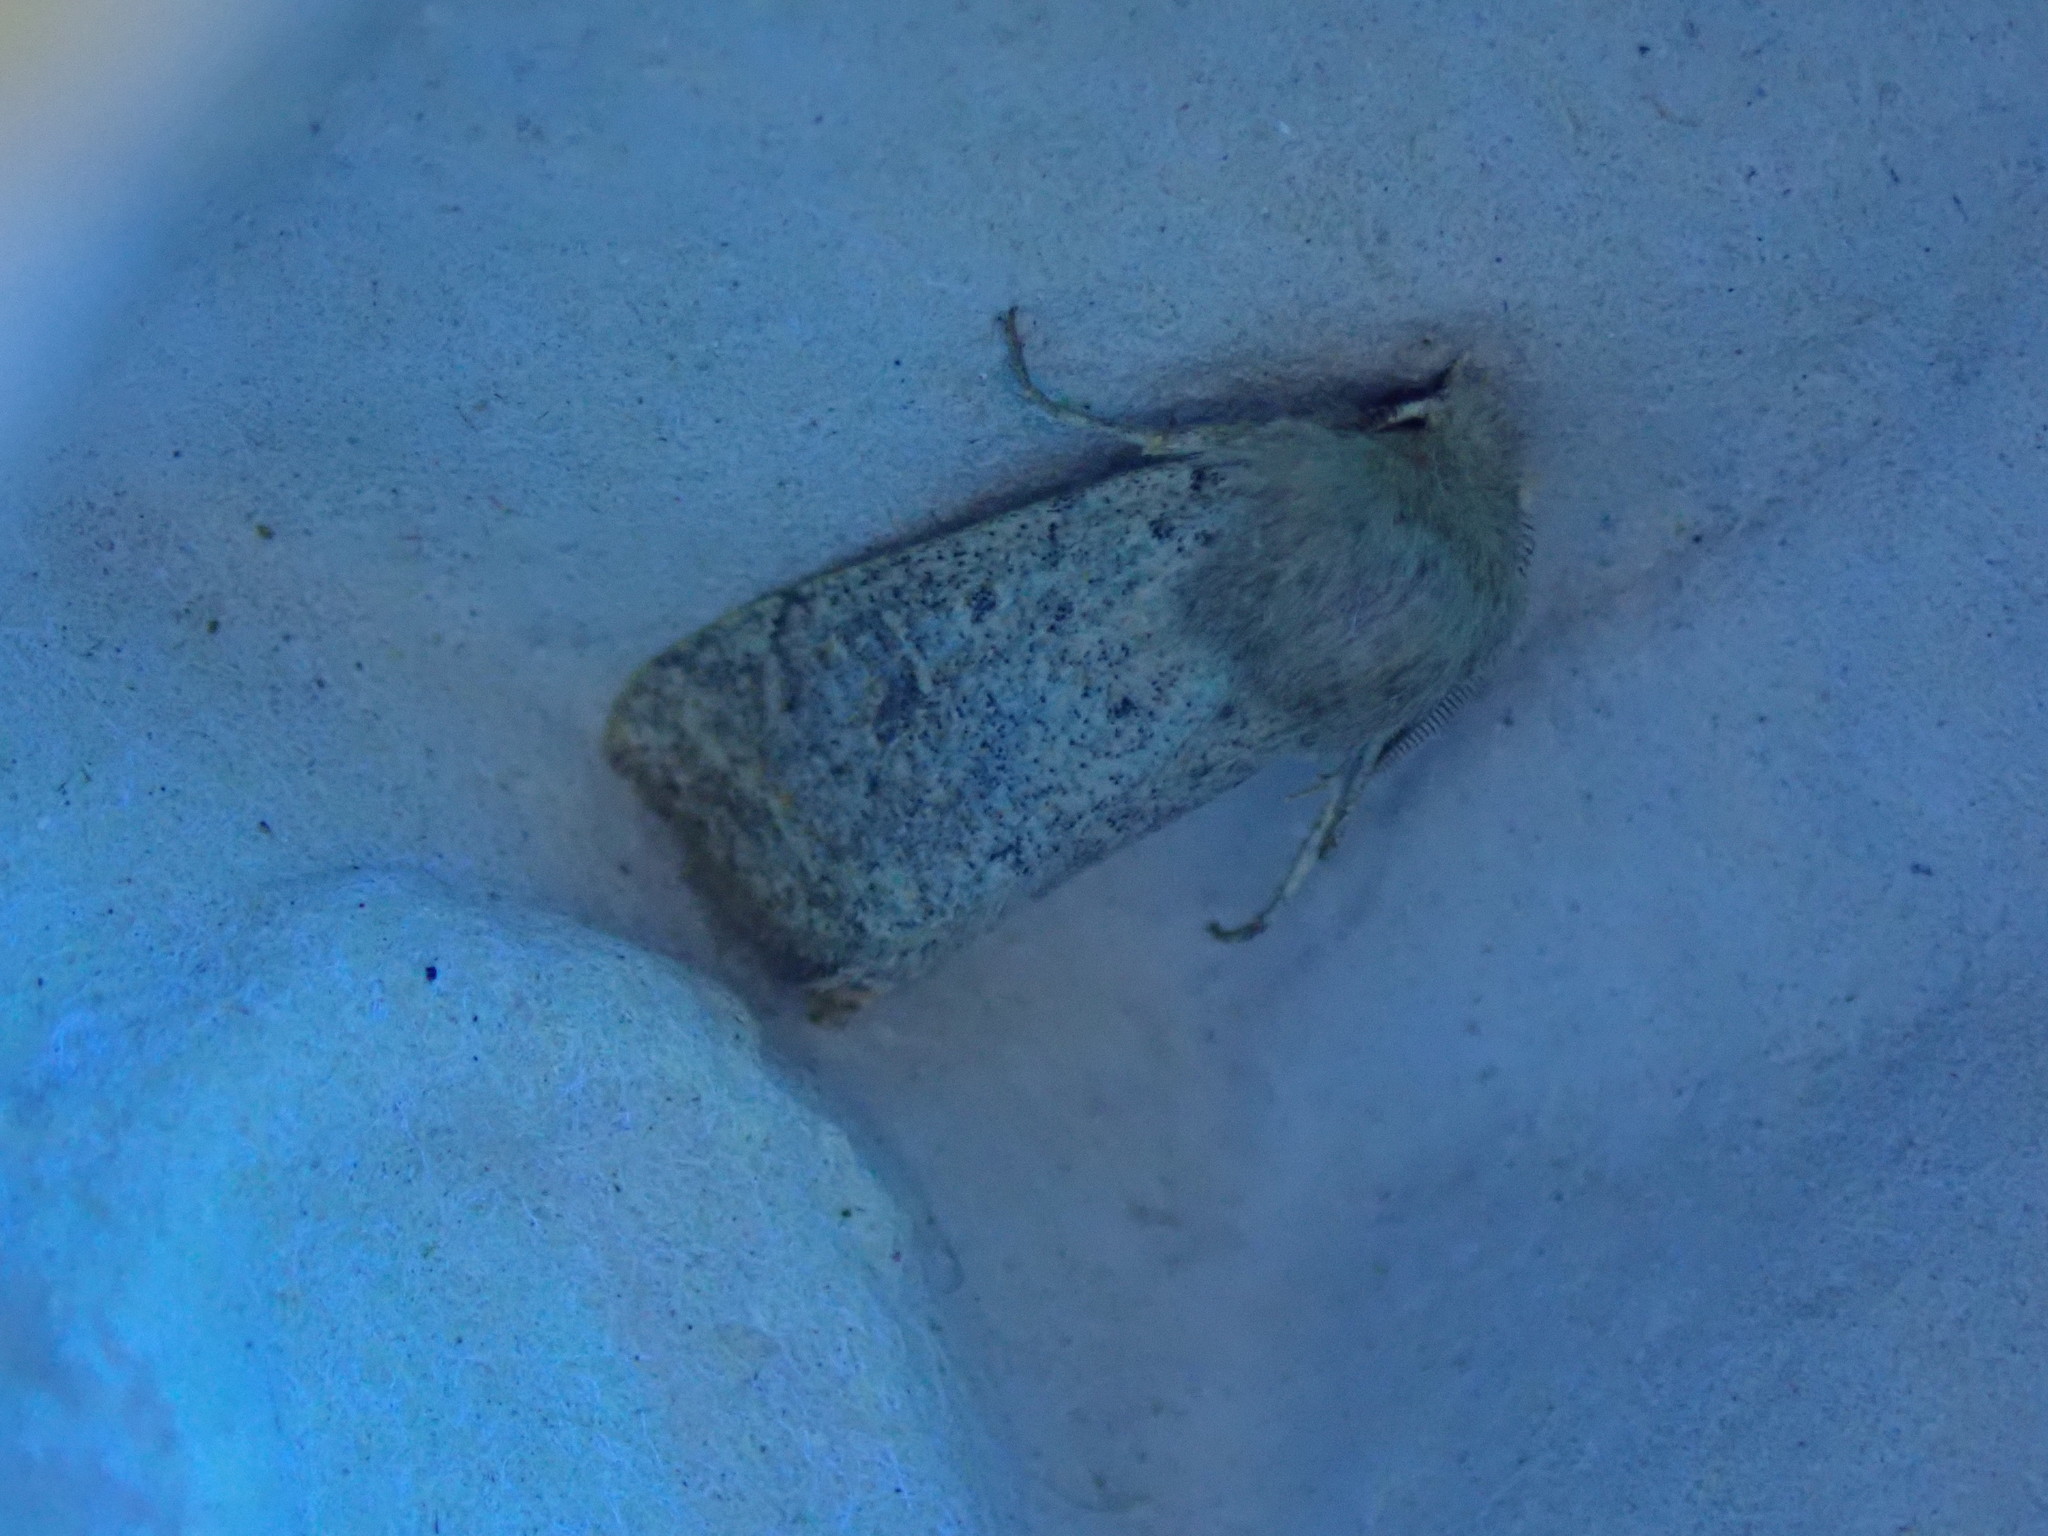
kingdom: Animalia
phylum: Arthropoda
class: Insecta
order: Lepidoptera
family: Noctuidae
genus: Orthosia
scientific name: Orthosia cruda
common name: Small quaker
